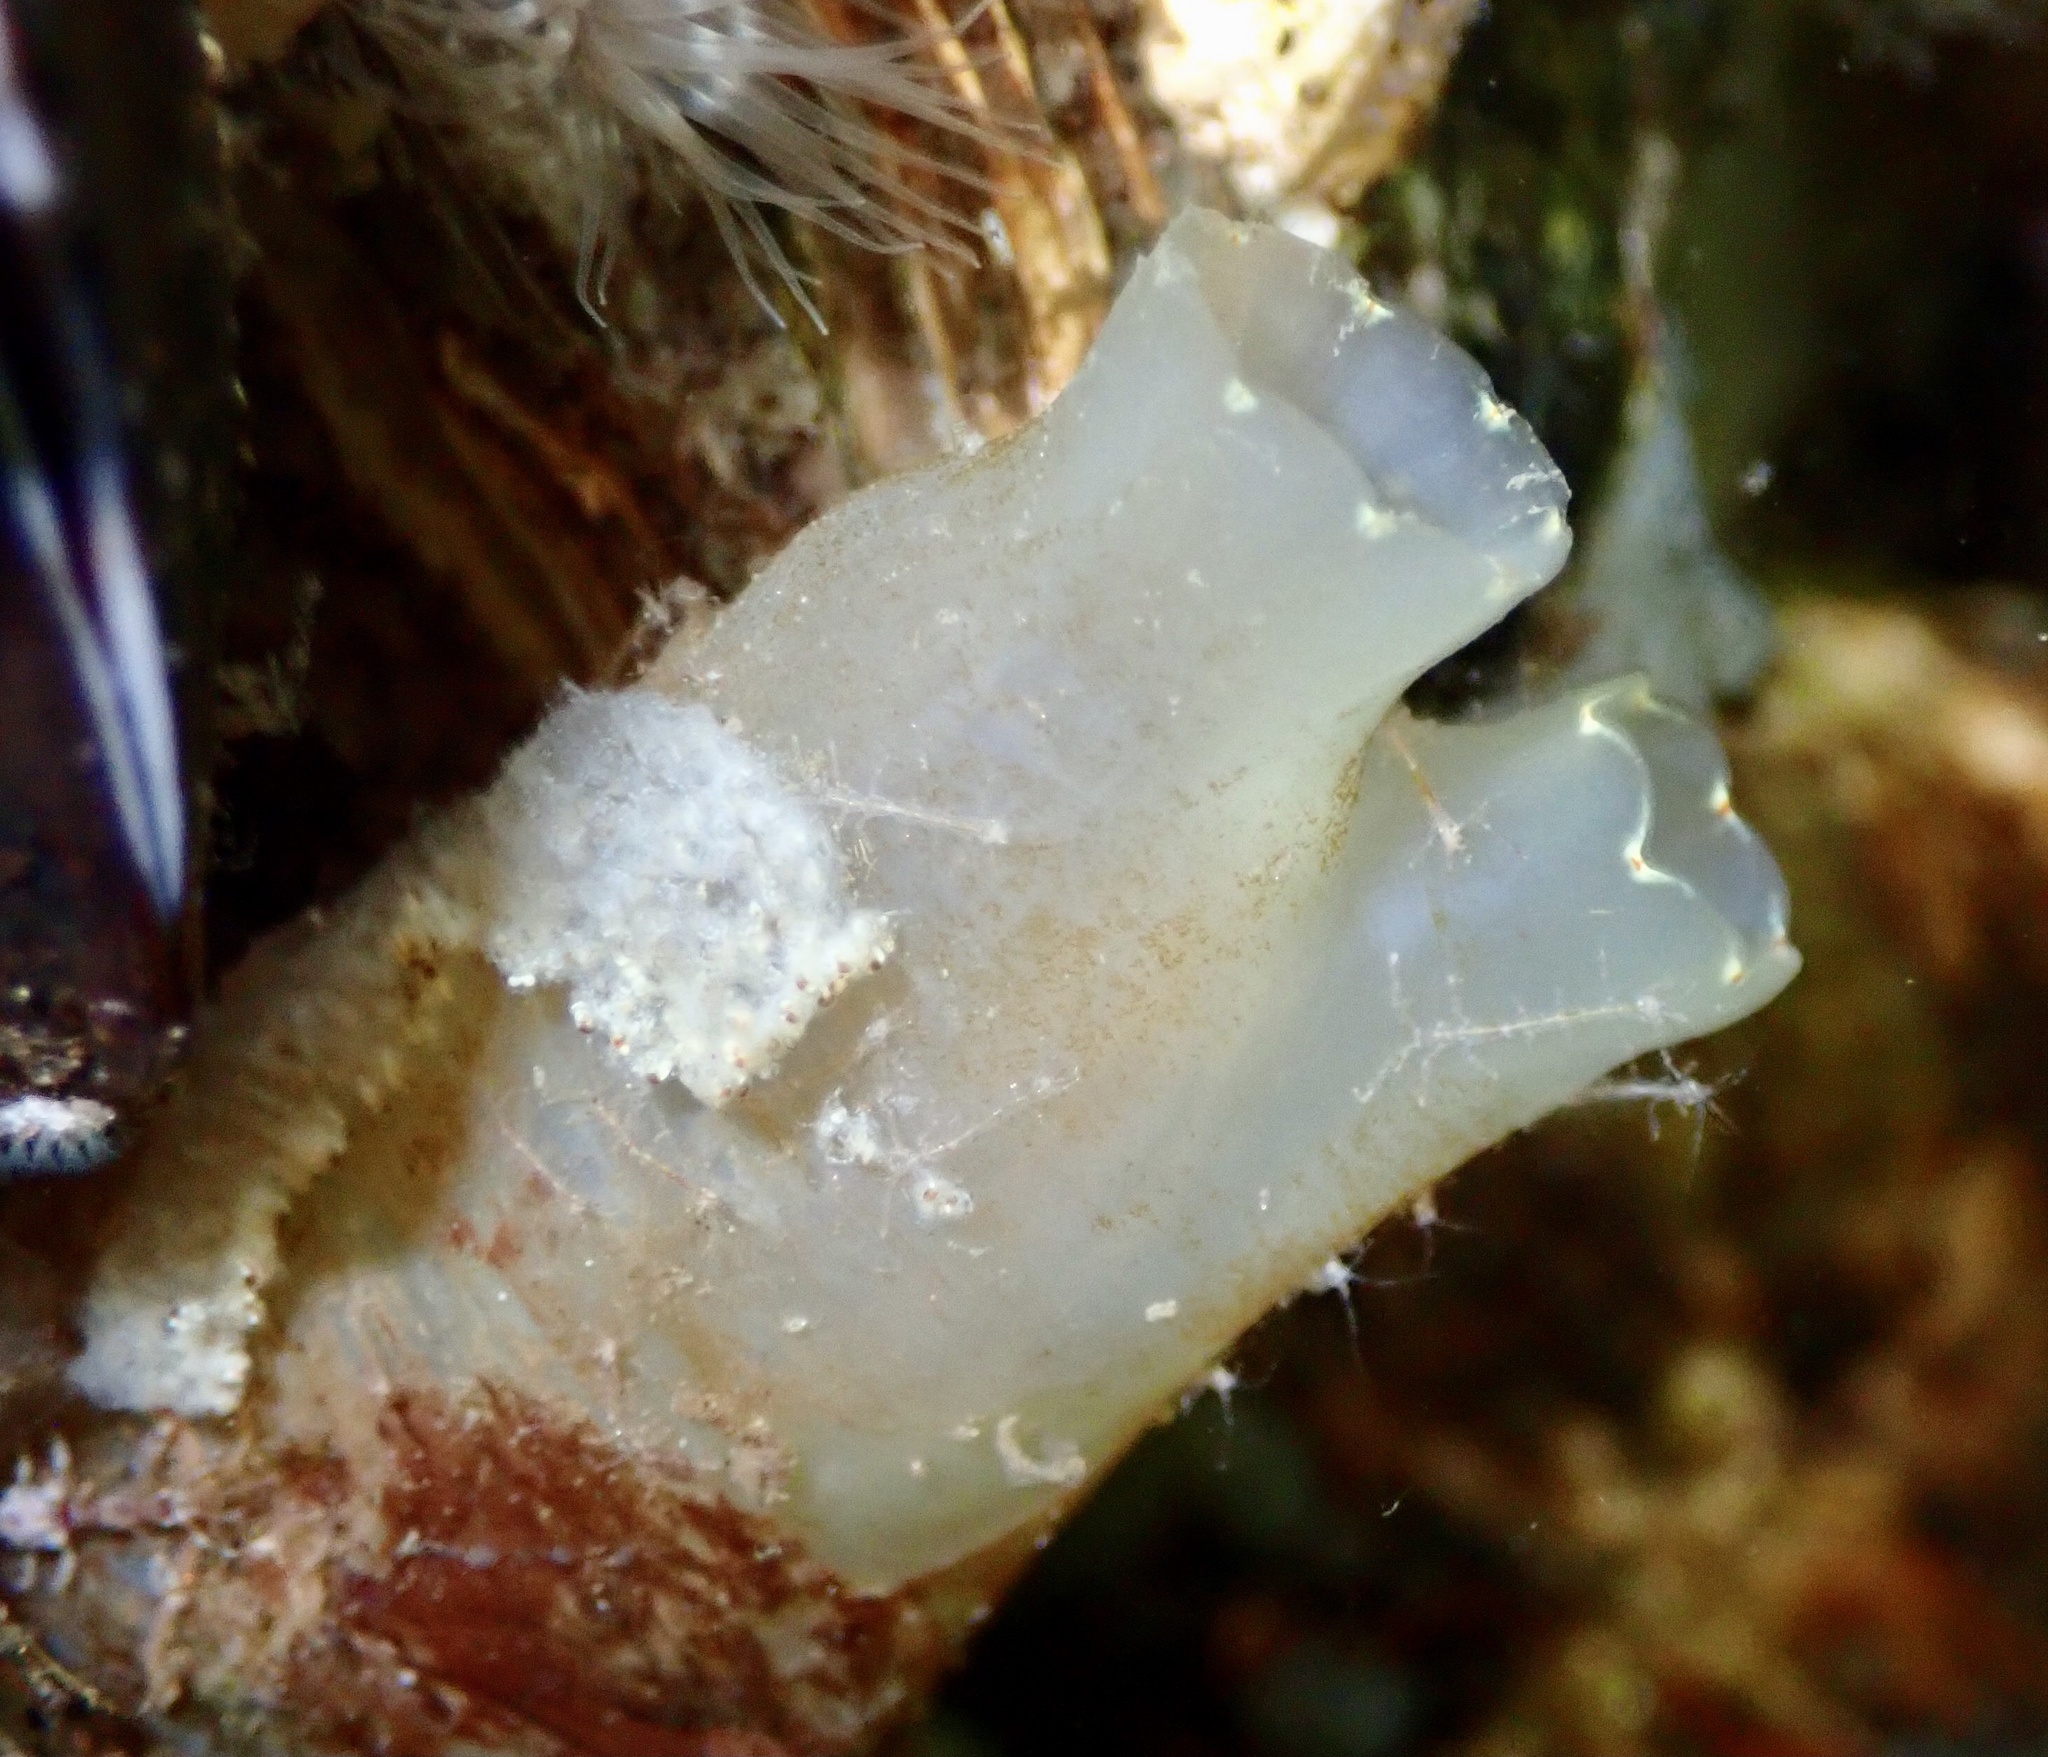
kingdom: Animalia
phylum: Chordata
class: Ascidiacea
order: Phlebobranchia
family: Cionidae
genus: Ciona
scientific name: Ciona intestinalis
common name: Vase tunicate
